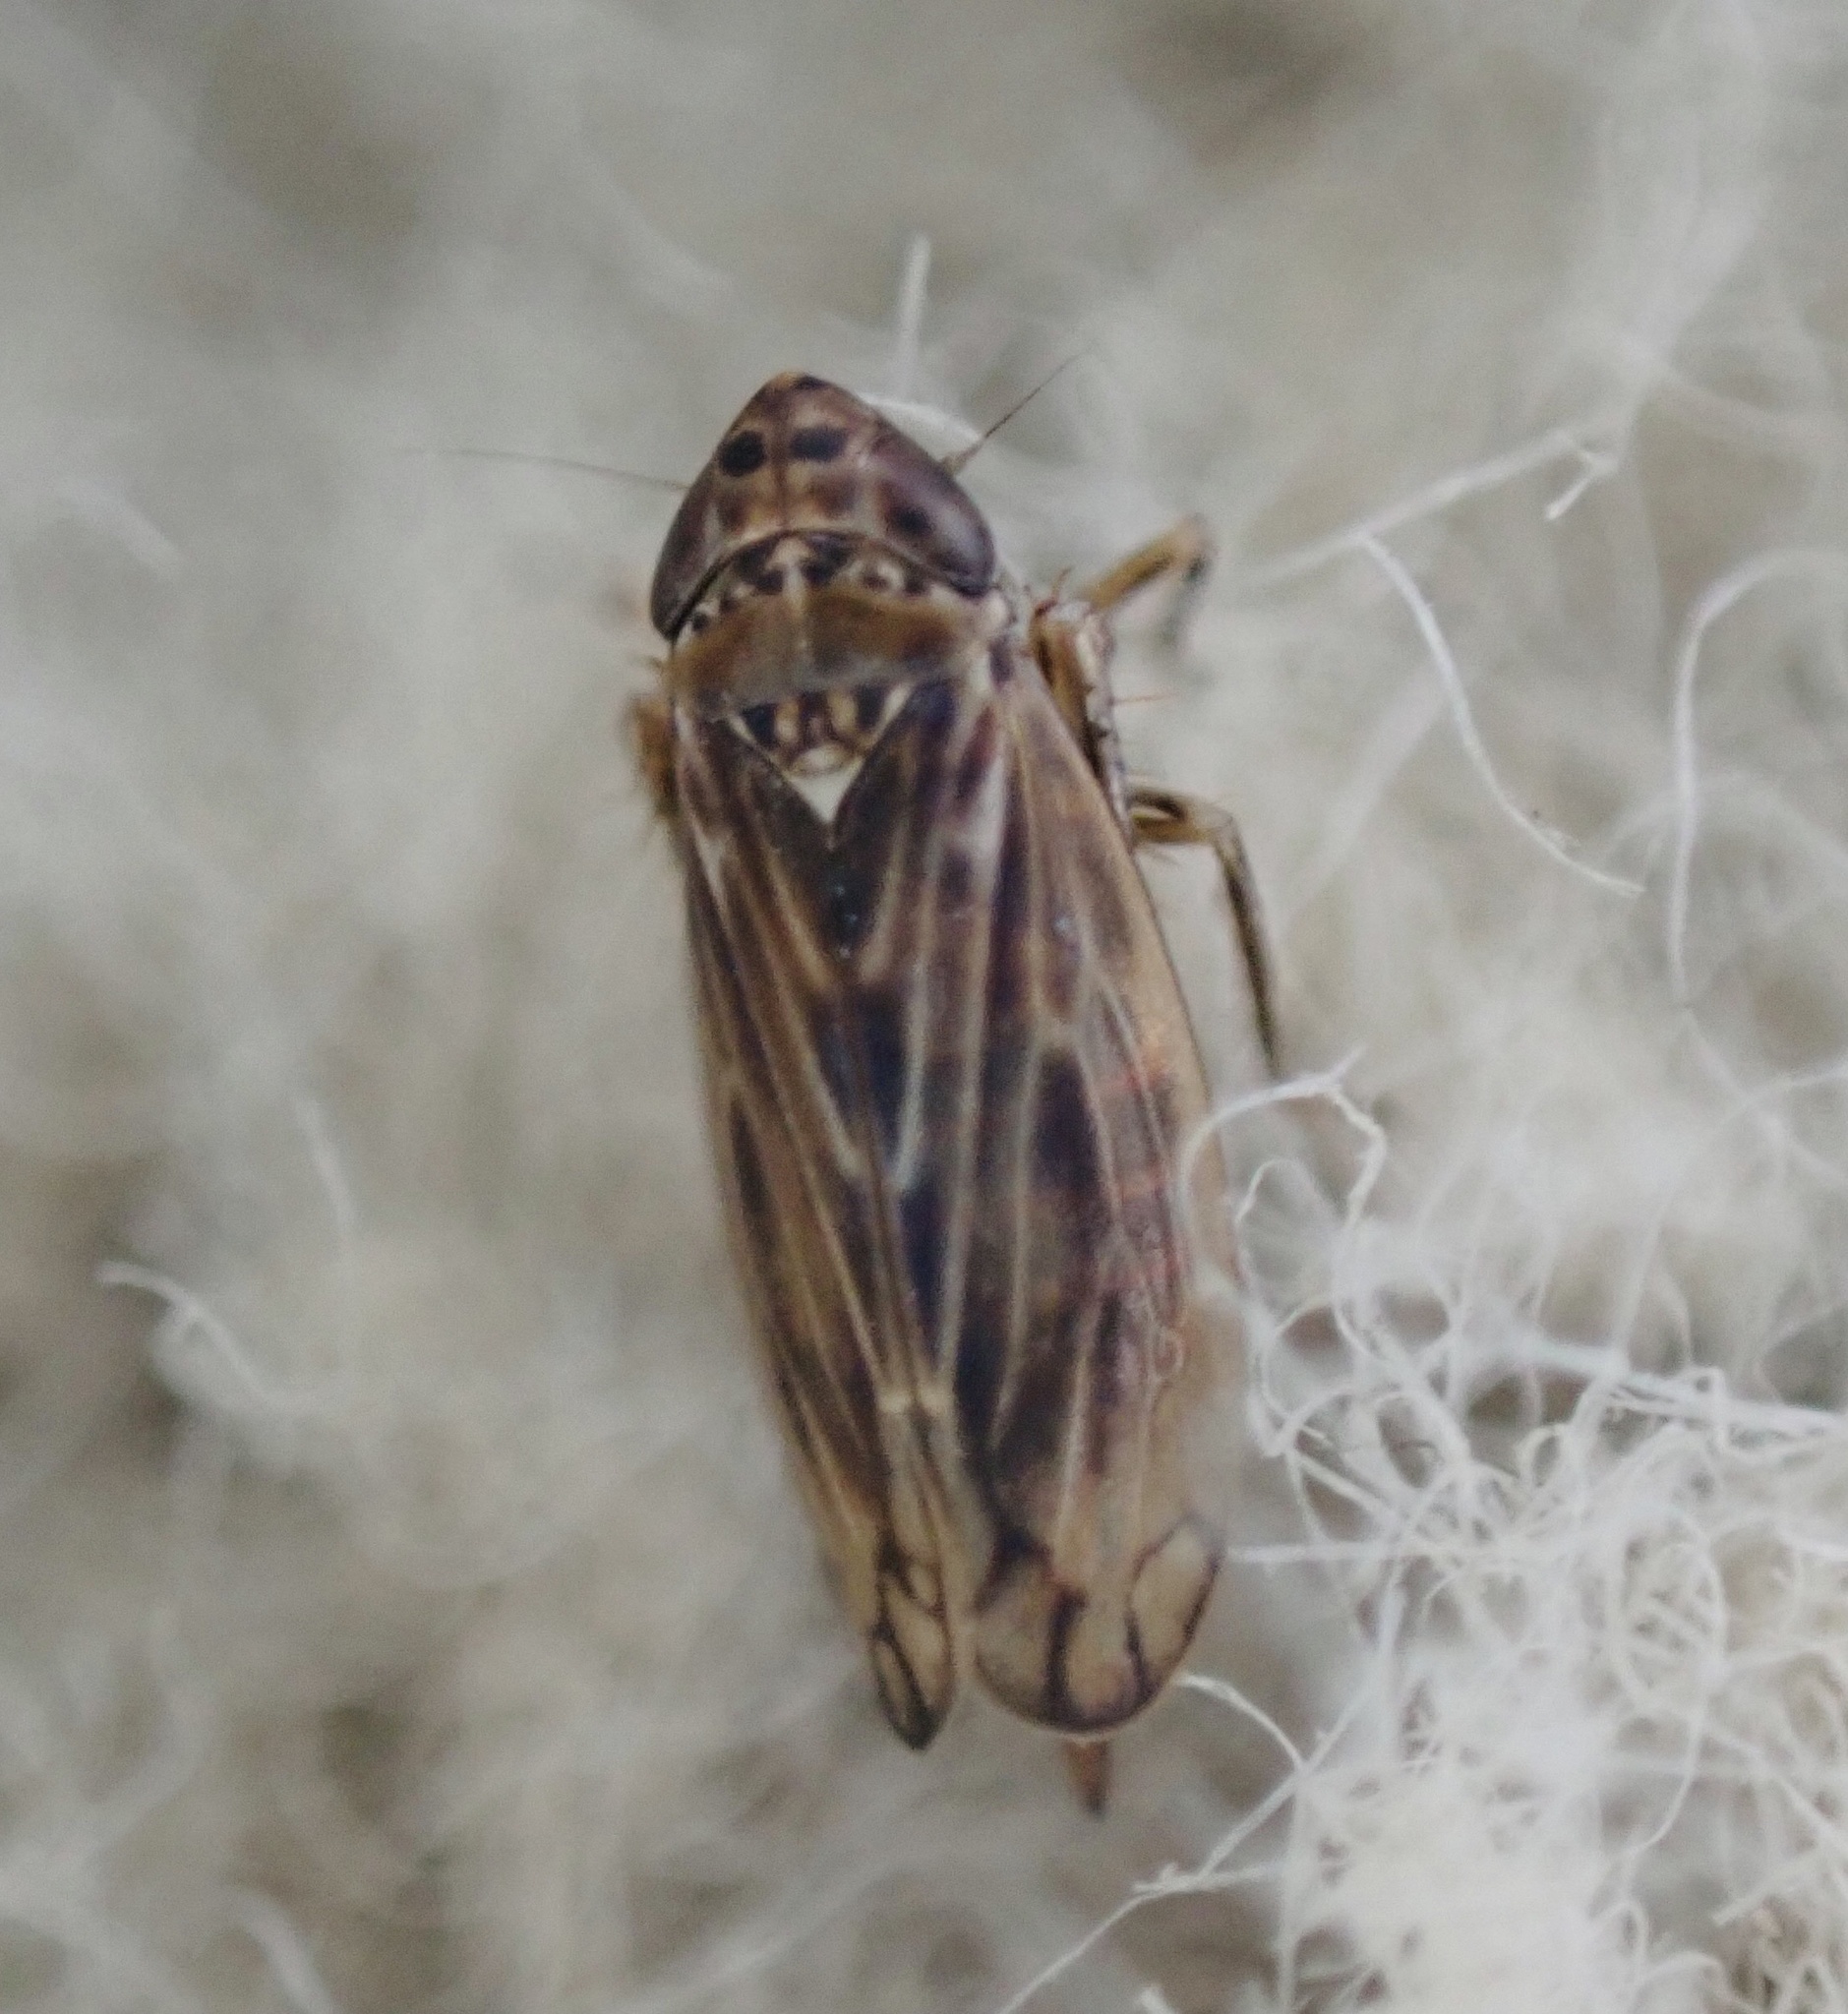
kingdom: Animalia
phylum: Arthropoda
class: Insecta
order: Hemiptera
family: Cicadellidae
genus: Stirellus
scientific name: Stirellus bicolor
